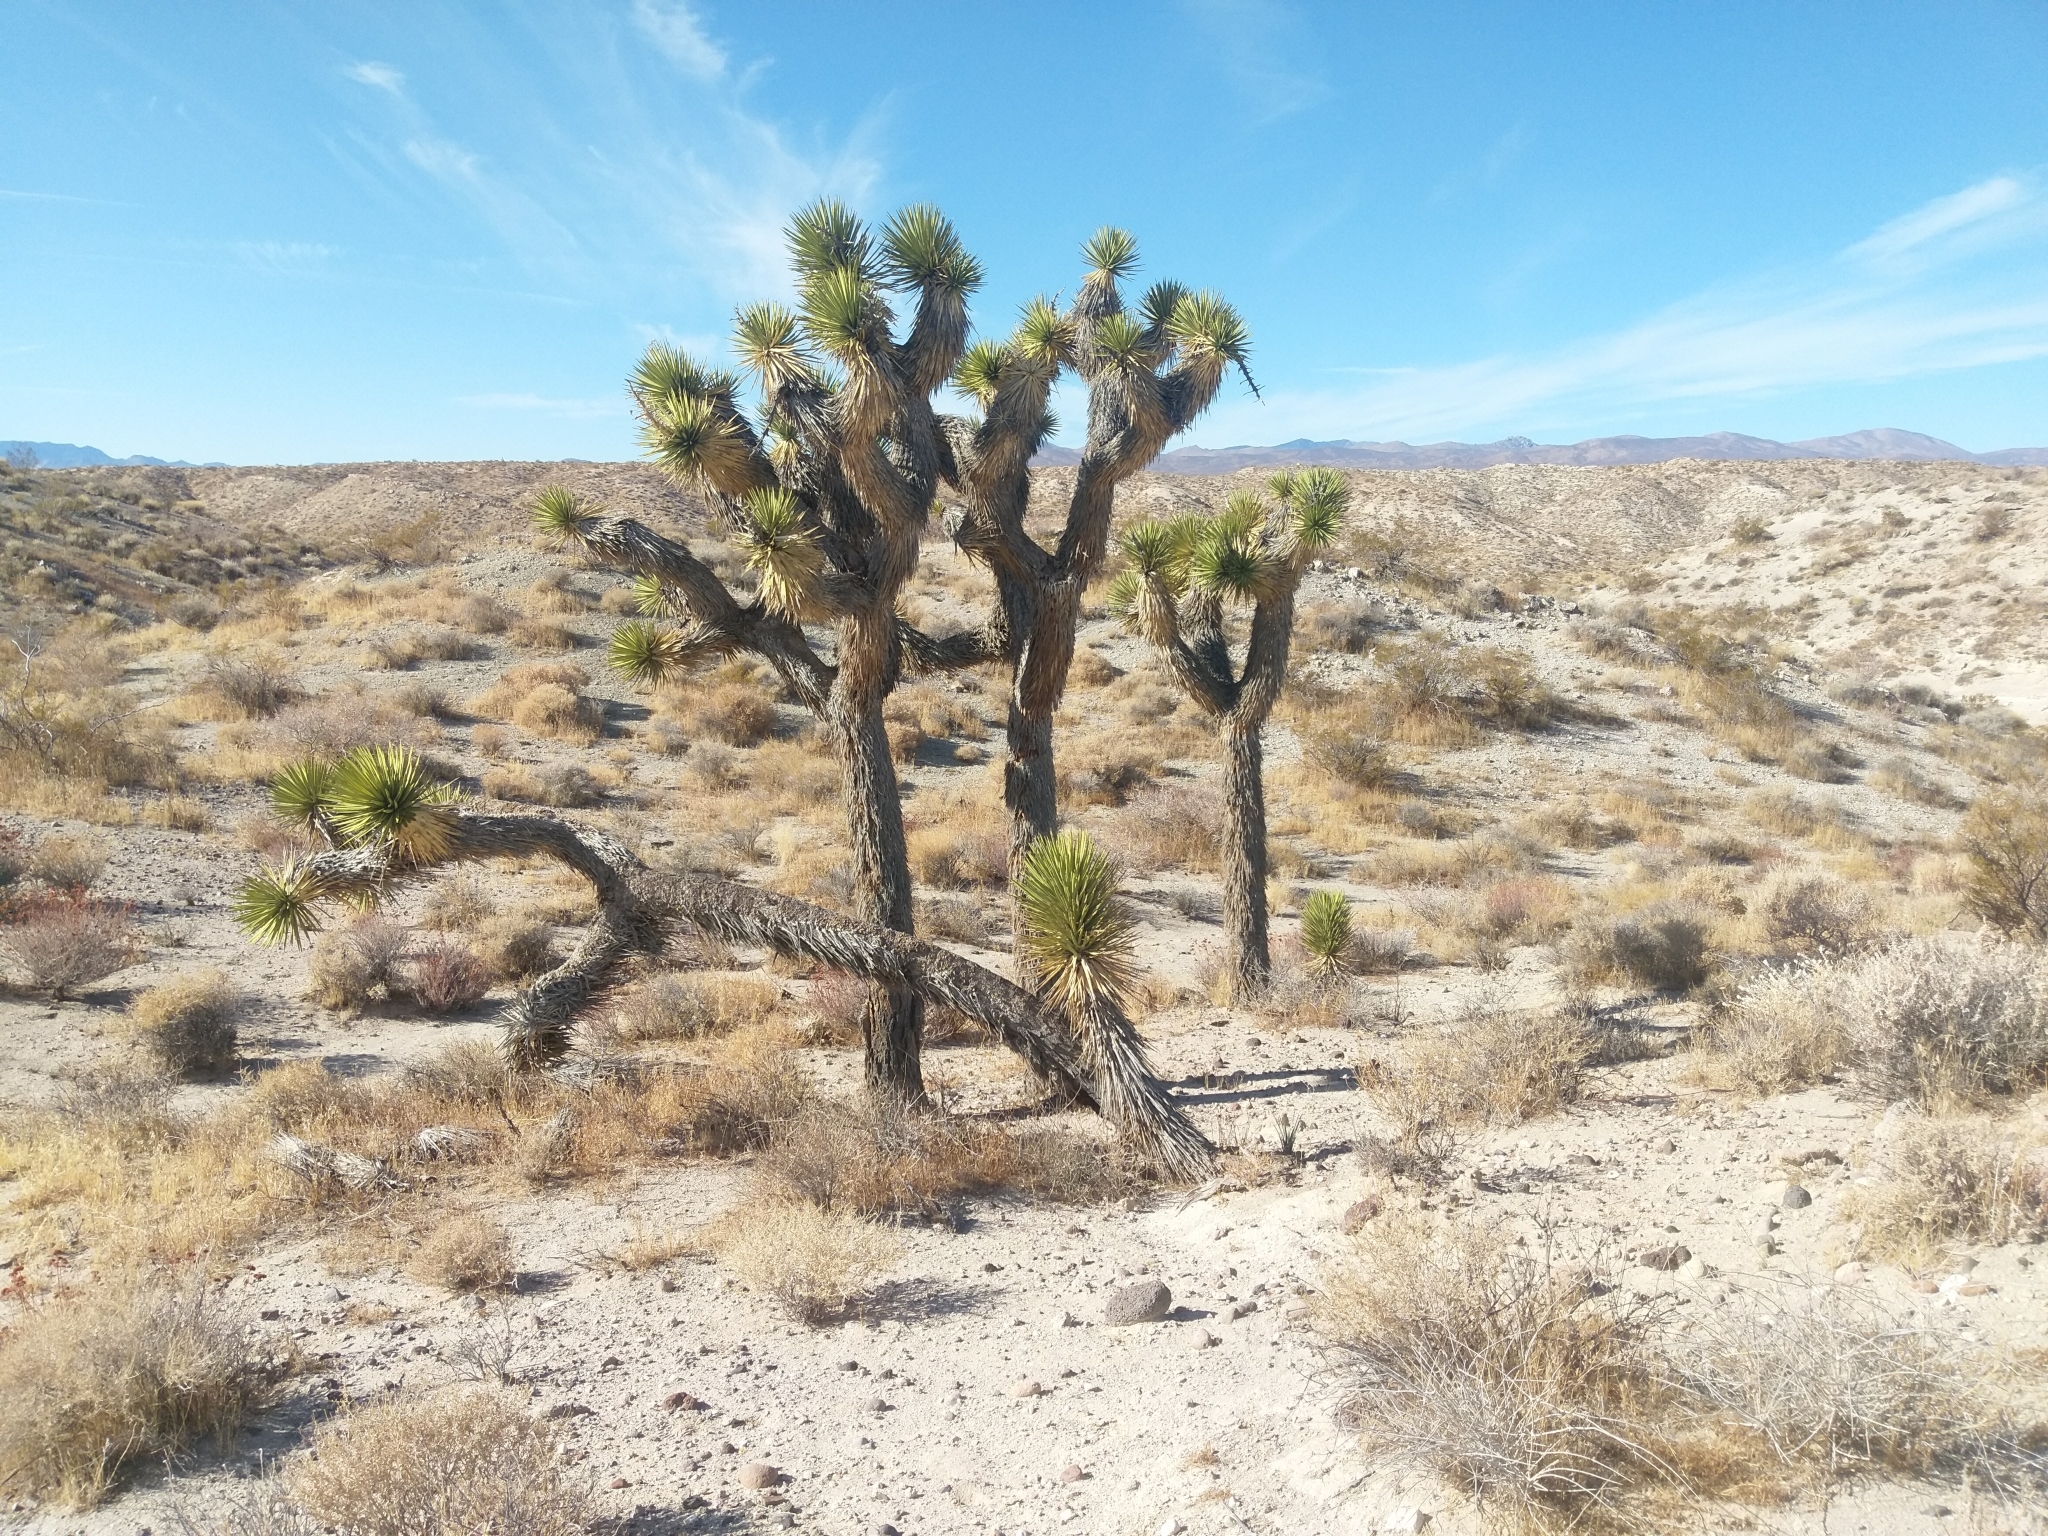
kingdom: Plantae
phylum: Tracheophyta
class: Liliopsida
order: Asparagales
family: Asparagaceae
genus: Yucca
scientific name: Yucca brevifolia
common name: Joshua tree
